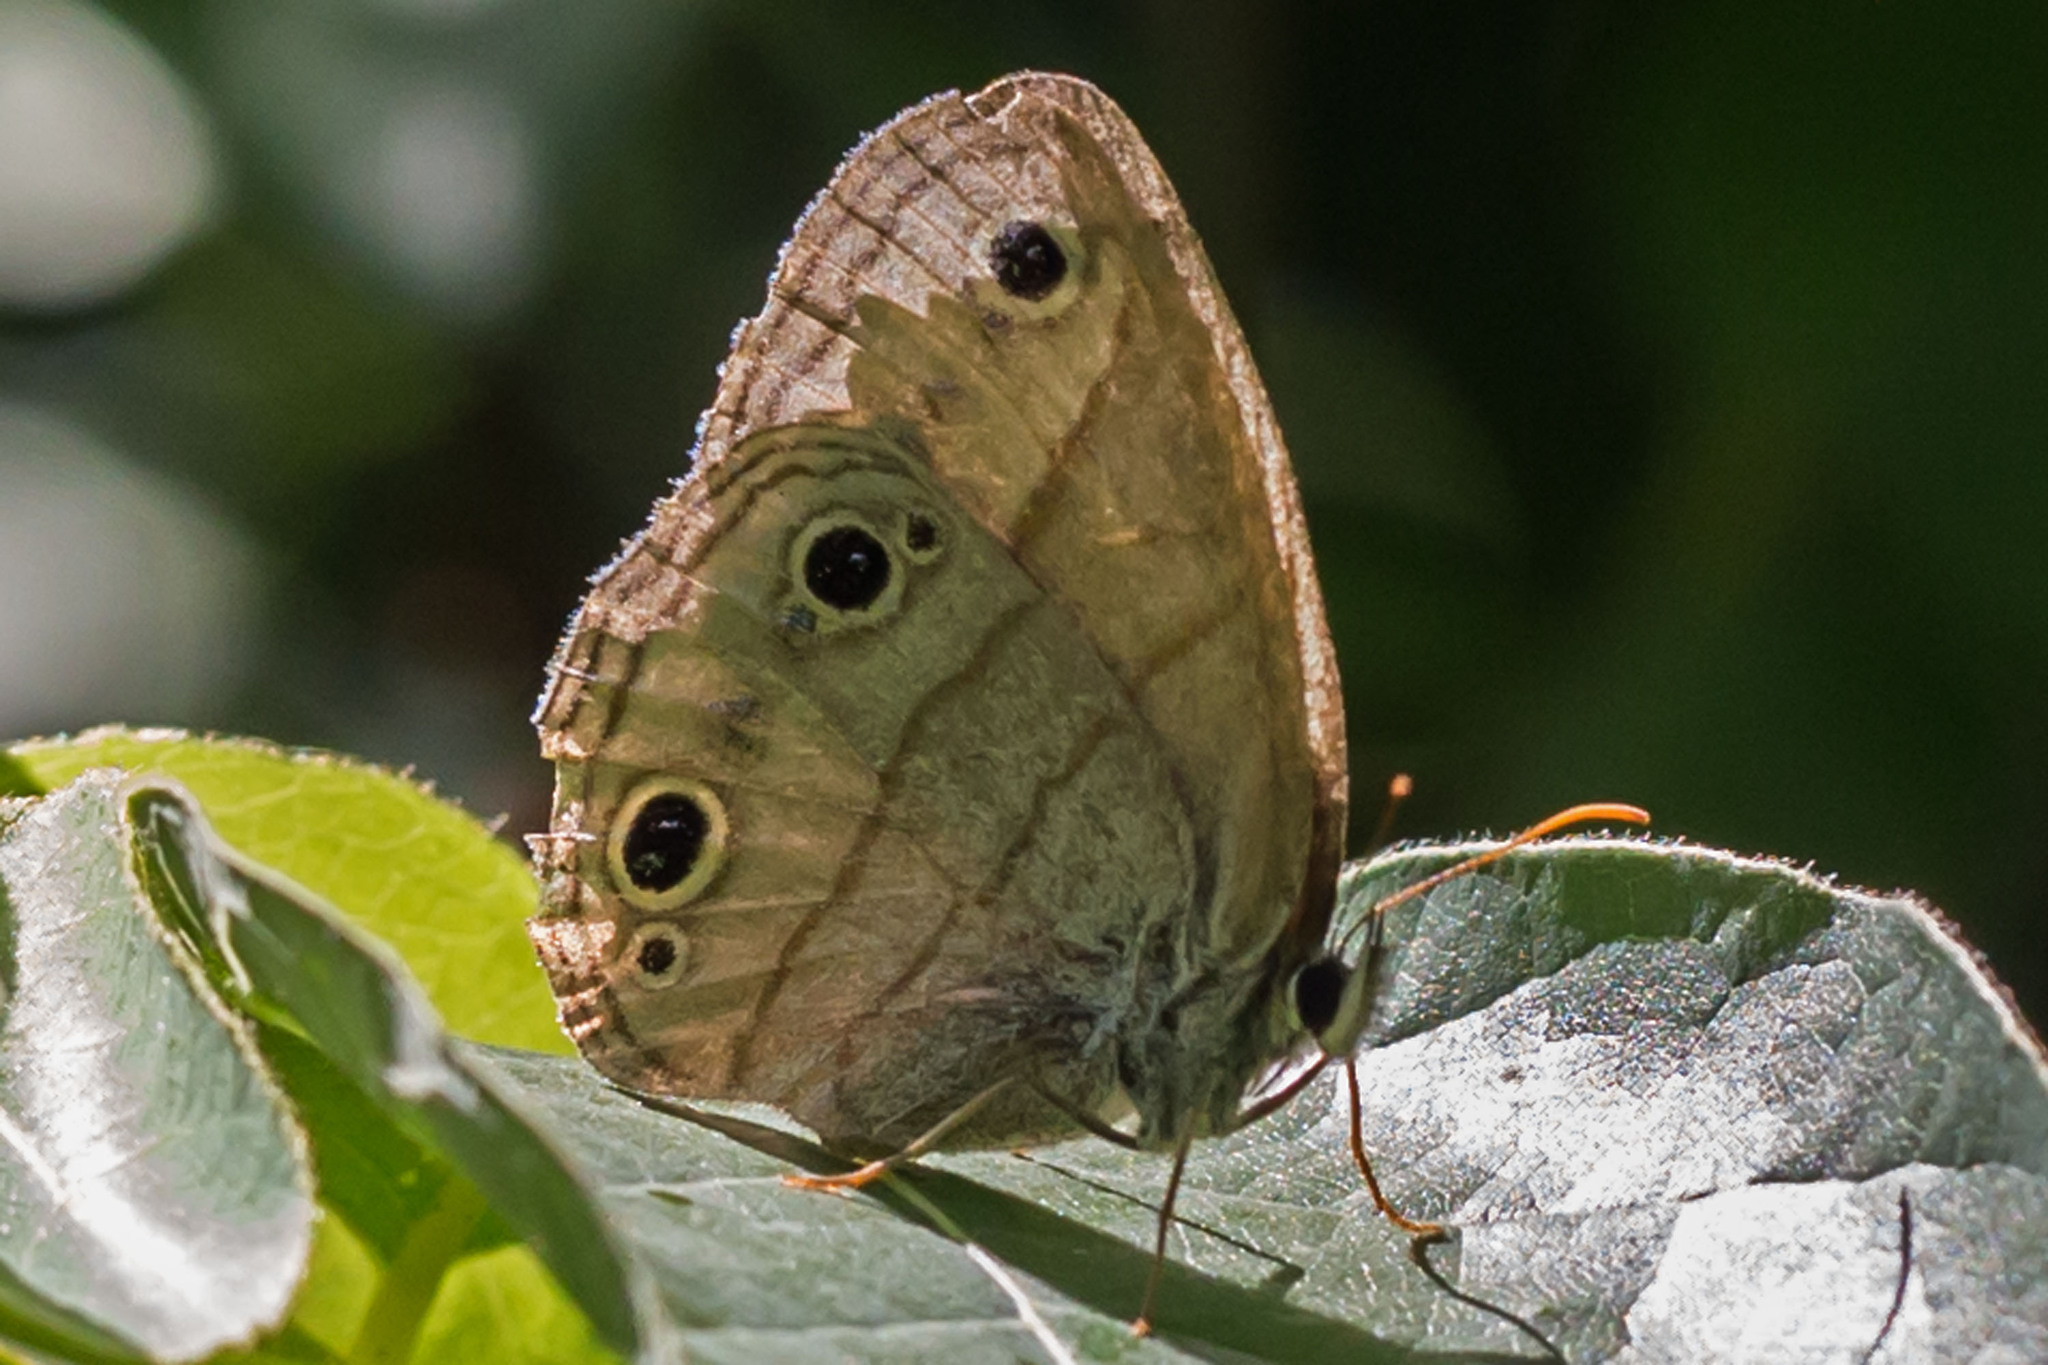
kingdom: Animalia
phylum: Arthropoda
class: Insecta
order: Lepidoptera
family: Nymphalidae
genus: Euptychia
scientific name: Euptychia cymela
